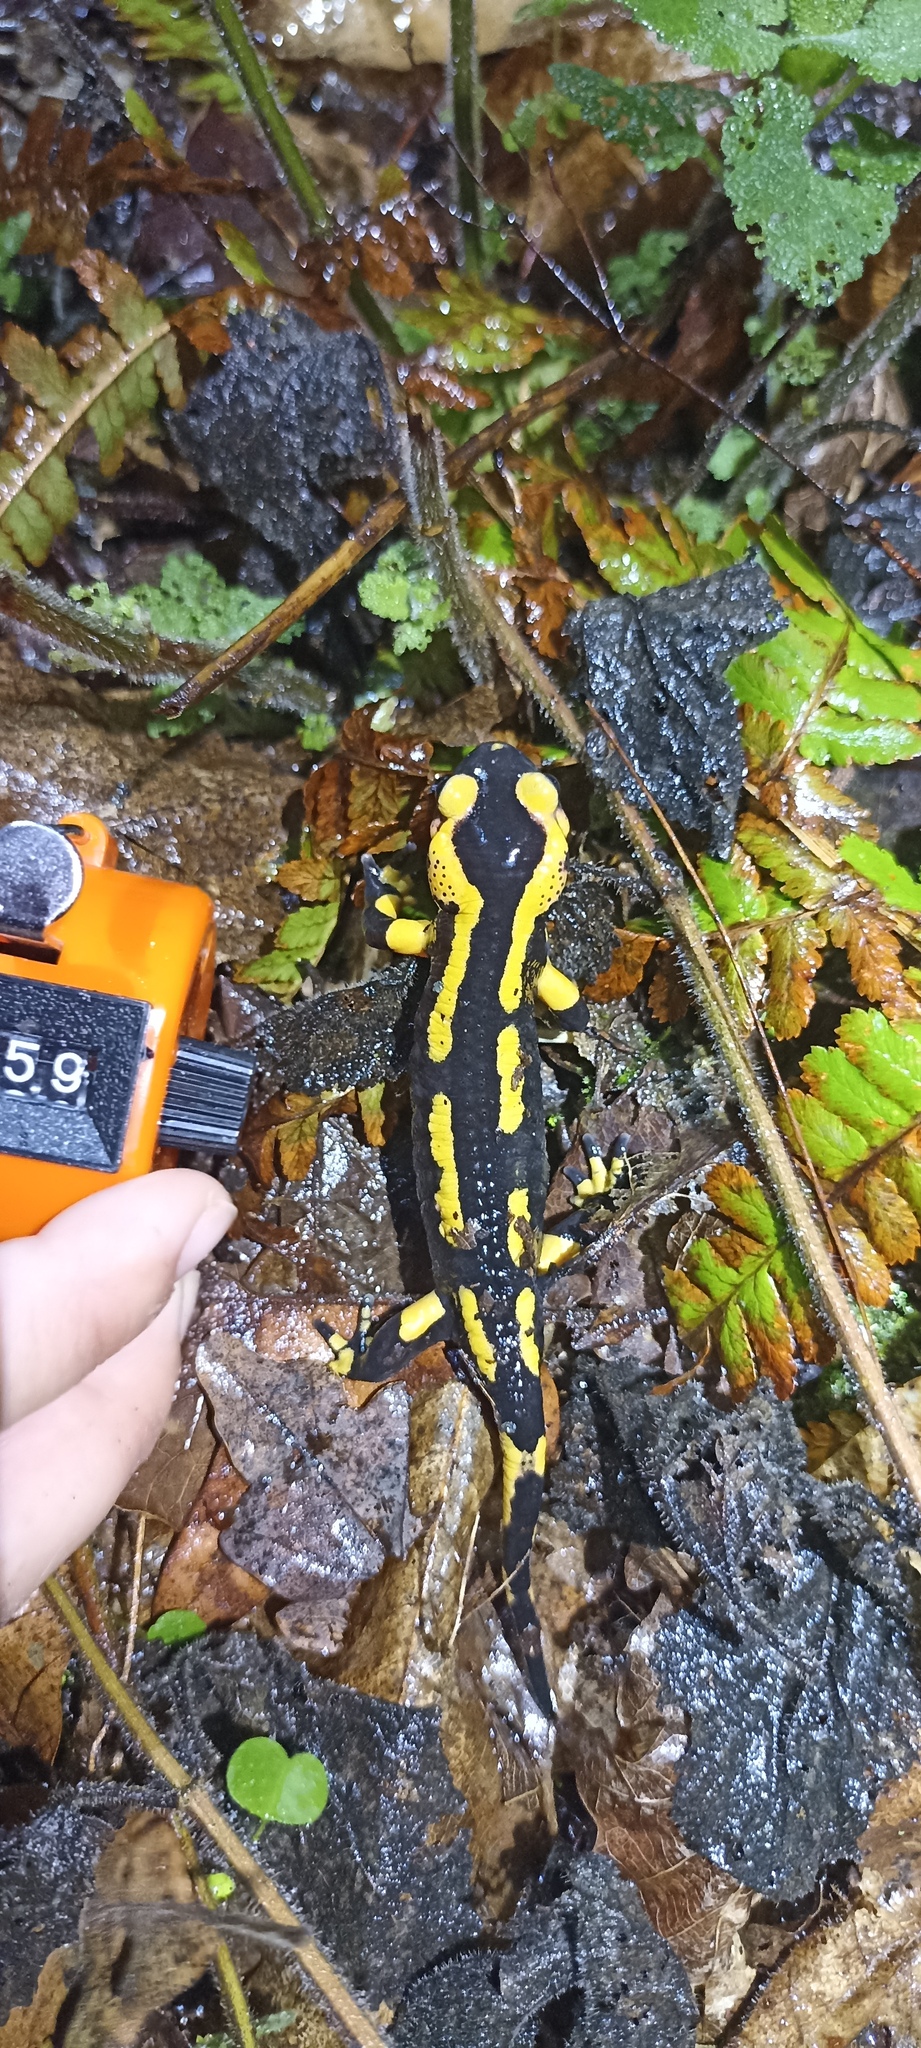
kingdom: Animalia
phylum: Chordata
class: Amphibia
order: Caudata
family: Salamandridae
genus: Salamandra
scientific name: Salamandra salamandra
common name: Fire salamander
